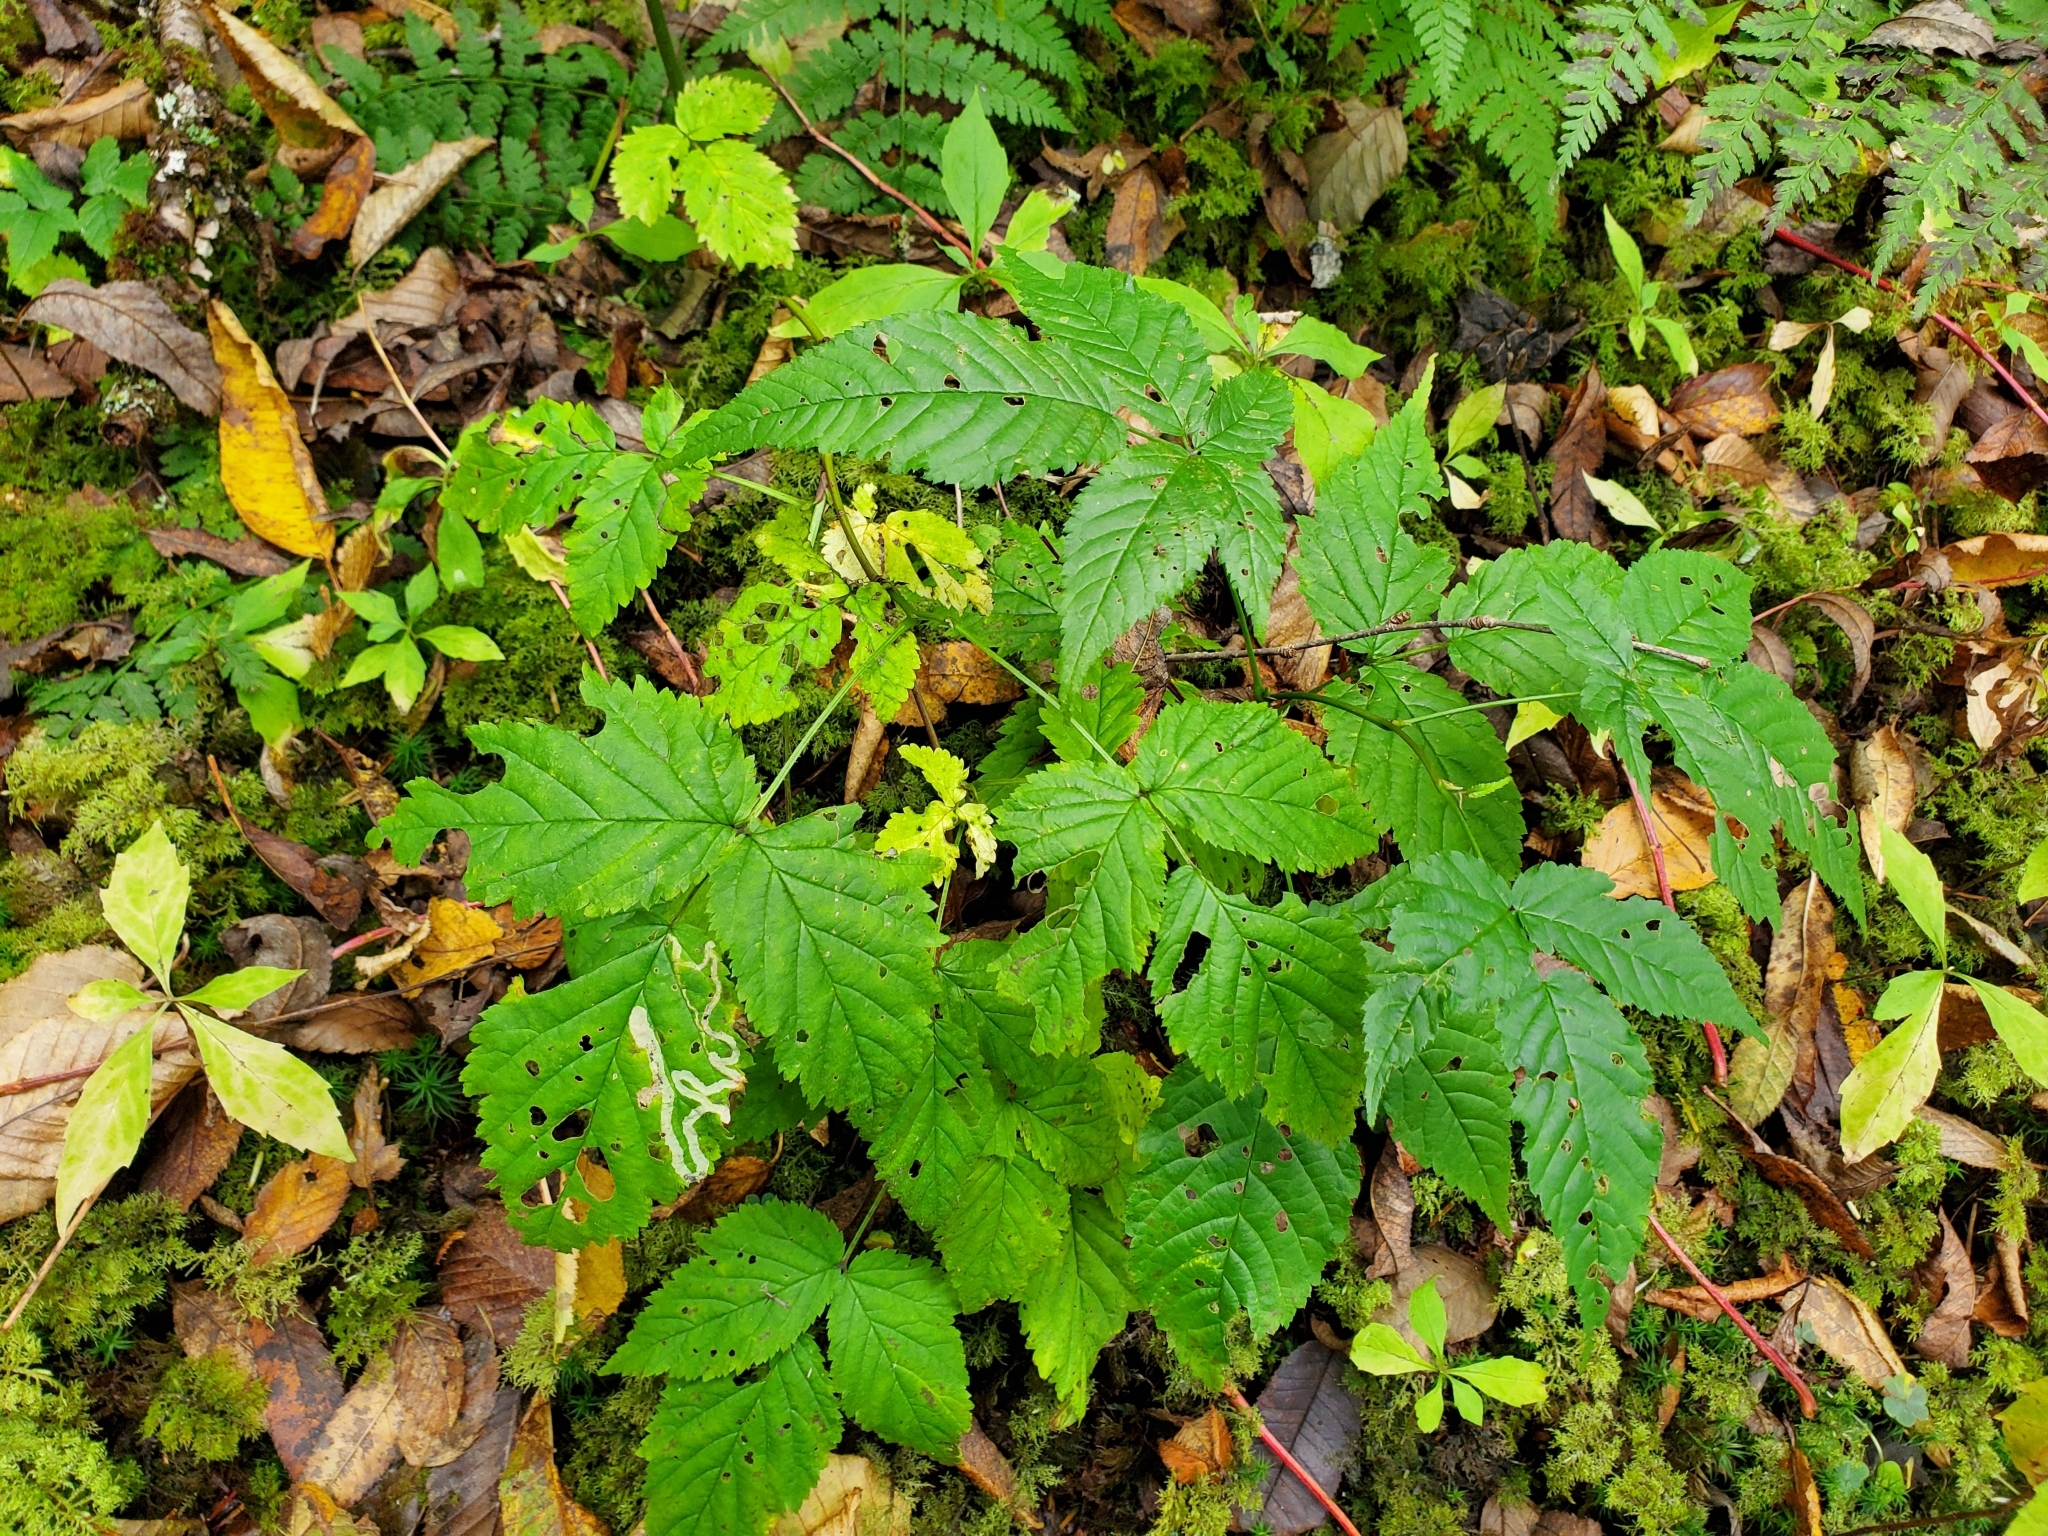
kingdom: Animalia
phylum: Arthropoda
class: Insecta
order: Diptera
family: Agromyzidae
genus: Agromyza
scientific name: Agromyza vockerothi
